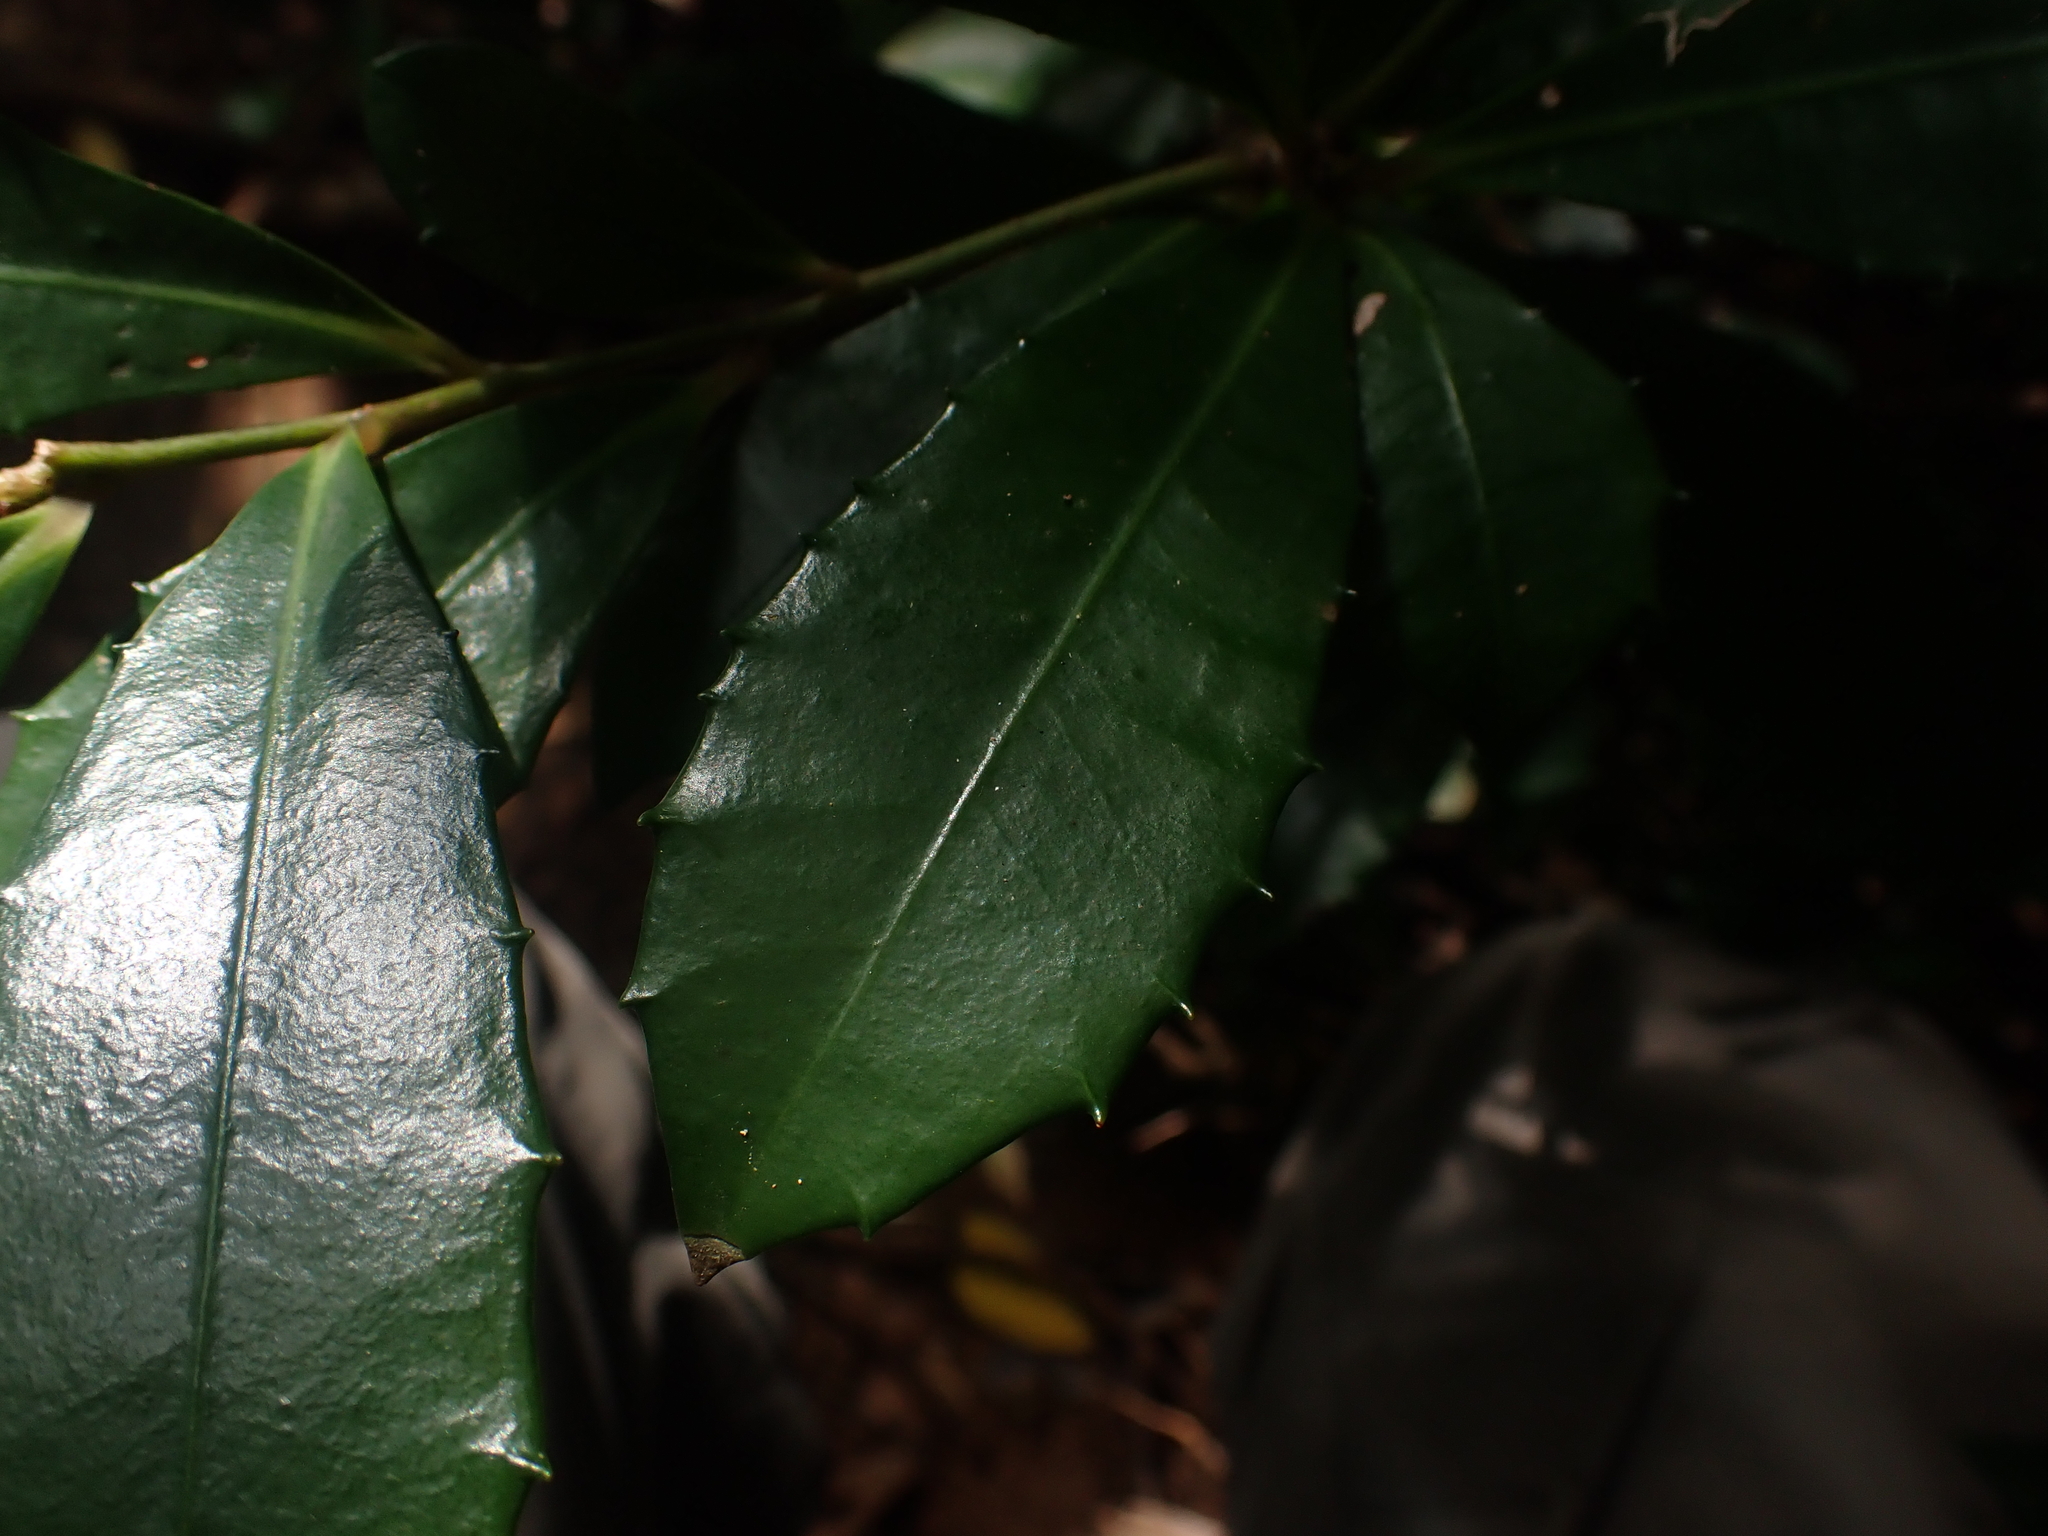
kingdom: Plantae
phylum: Tracheophyta
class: Magnoliopsida
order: Ericales
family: Primulaceae
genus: Ardisia
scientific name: Ardisia cornudentata
